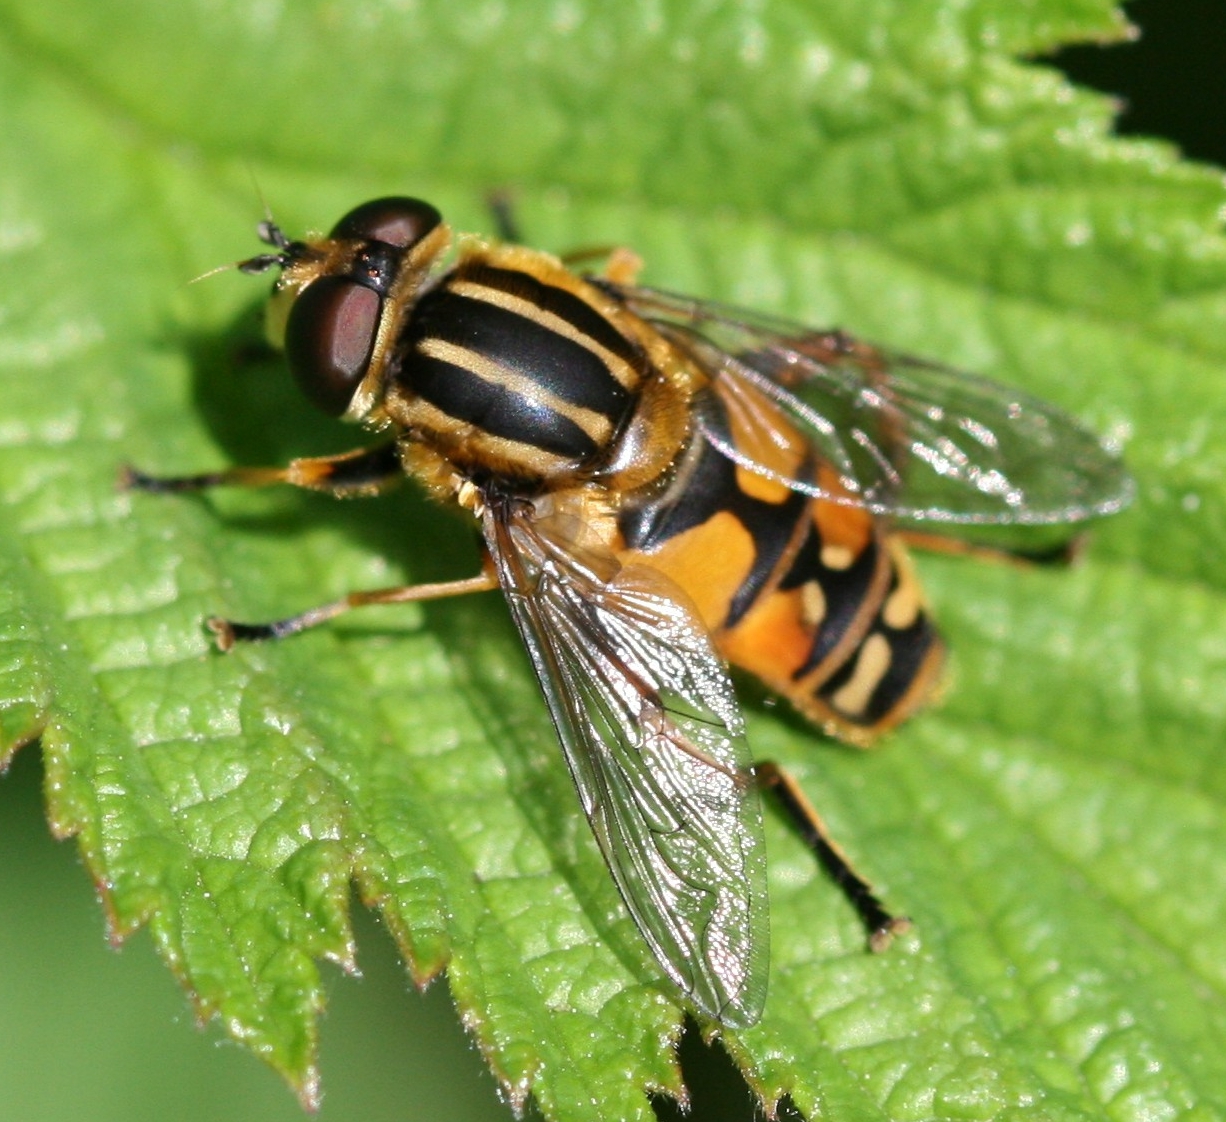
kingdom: Animalia
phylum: Arthropoda
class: Insecta
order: Diptera
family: Syrphidae
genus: Helophilus
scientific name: Helophilus pendulus
